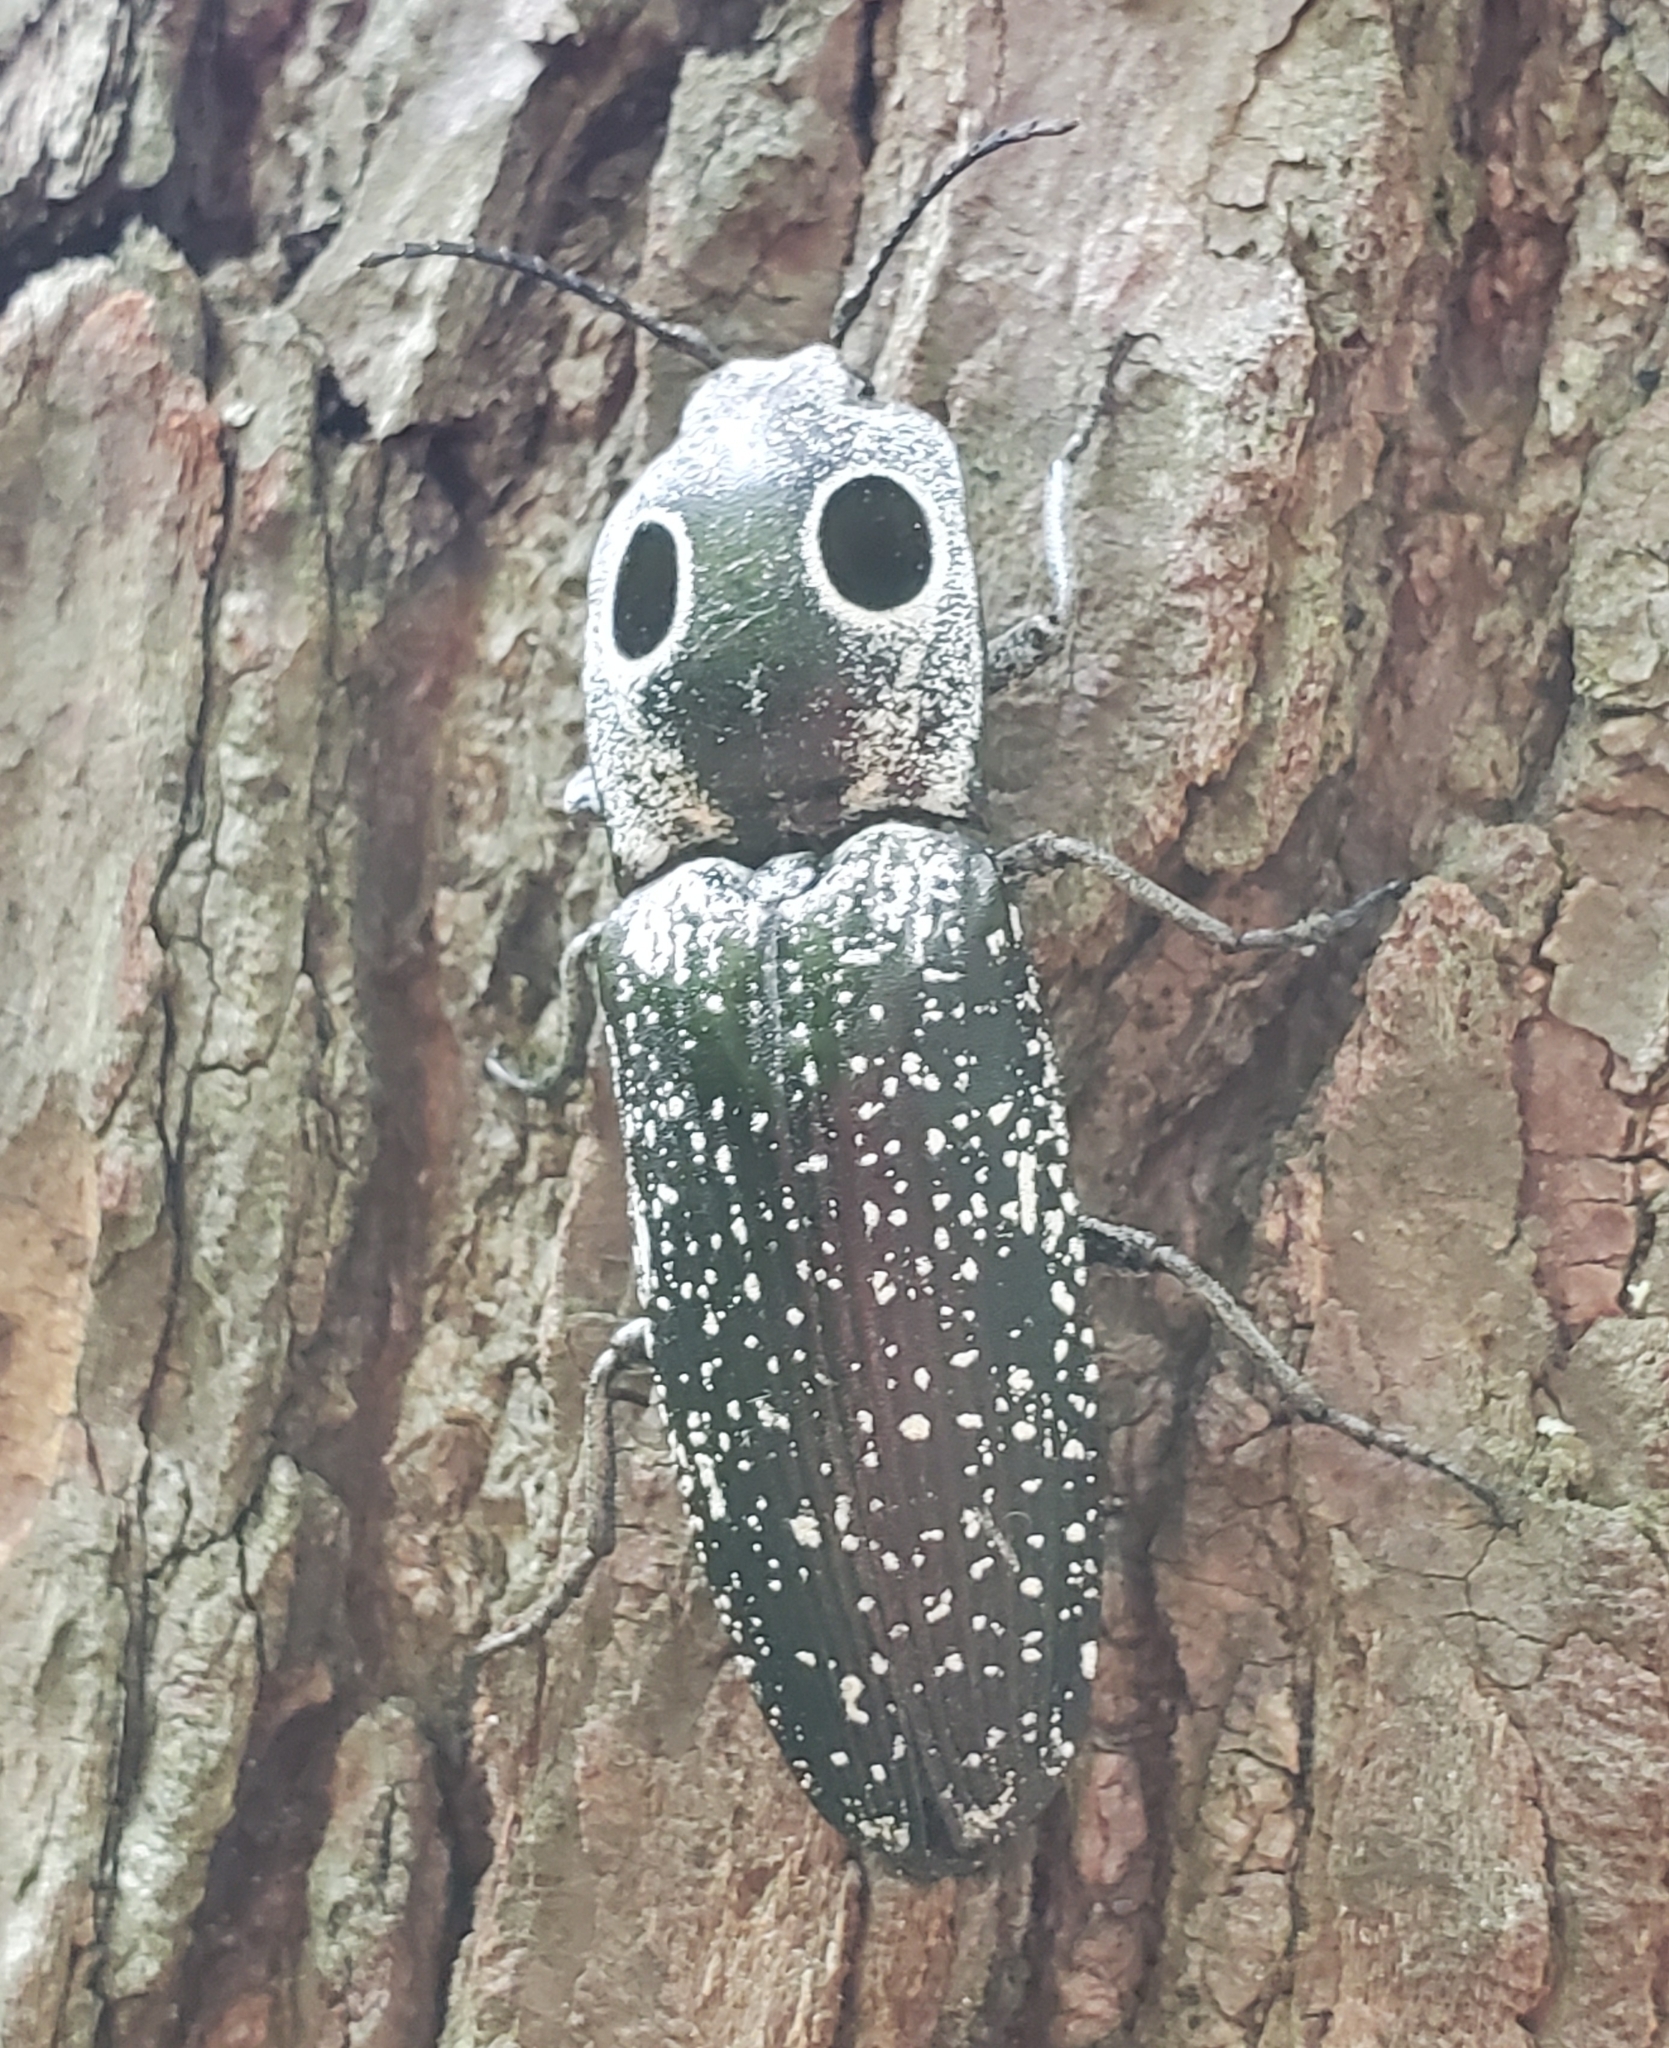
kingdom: Animalia
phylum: Arthropoda
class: Insecta
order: Coleoptera
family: Elateridae
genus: Alaus
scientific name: Alaus oculatus
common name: Eastern eyed click beetle
